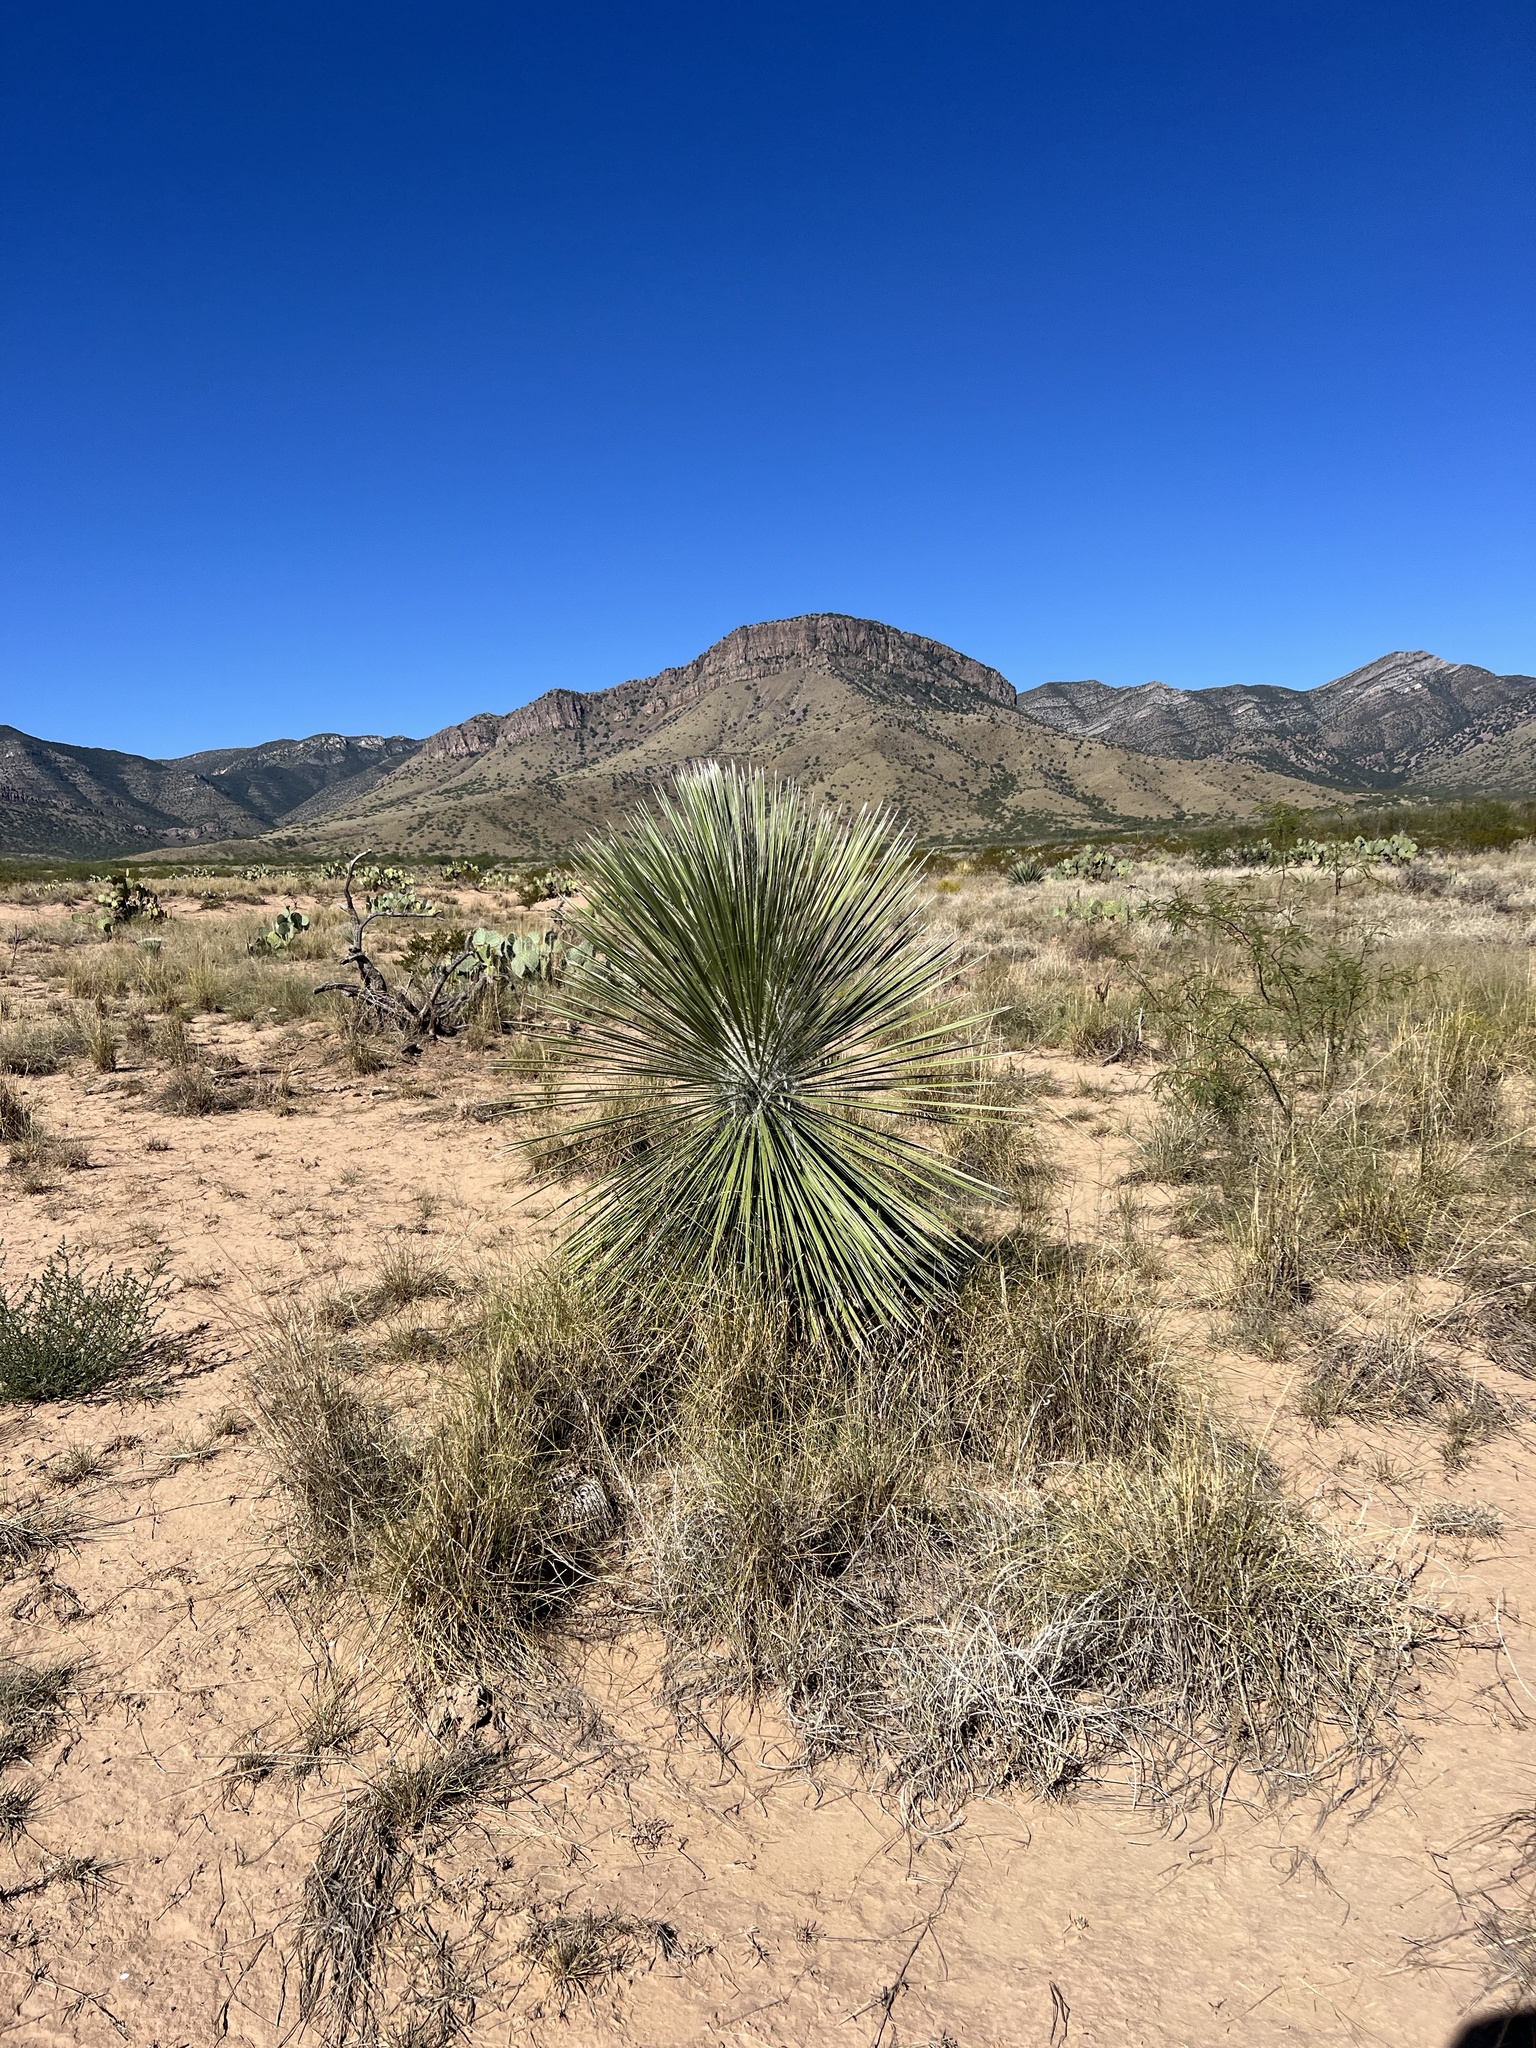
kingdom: Plantae
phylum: Tracheophyta
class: Liliopsida
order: Asparagales
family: Asparagaceae
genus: Yucca
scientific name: Yucca elata
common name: Palmella
